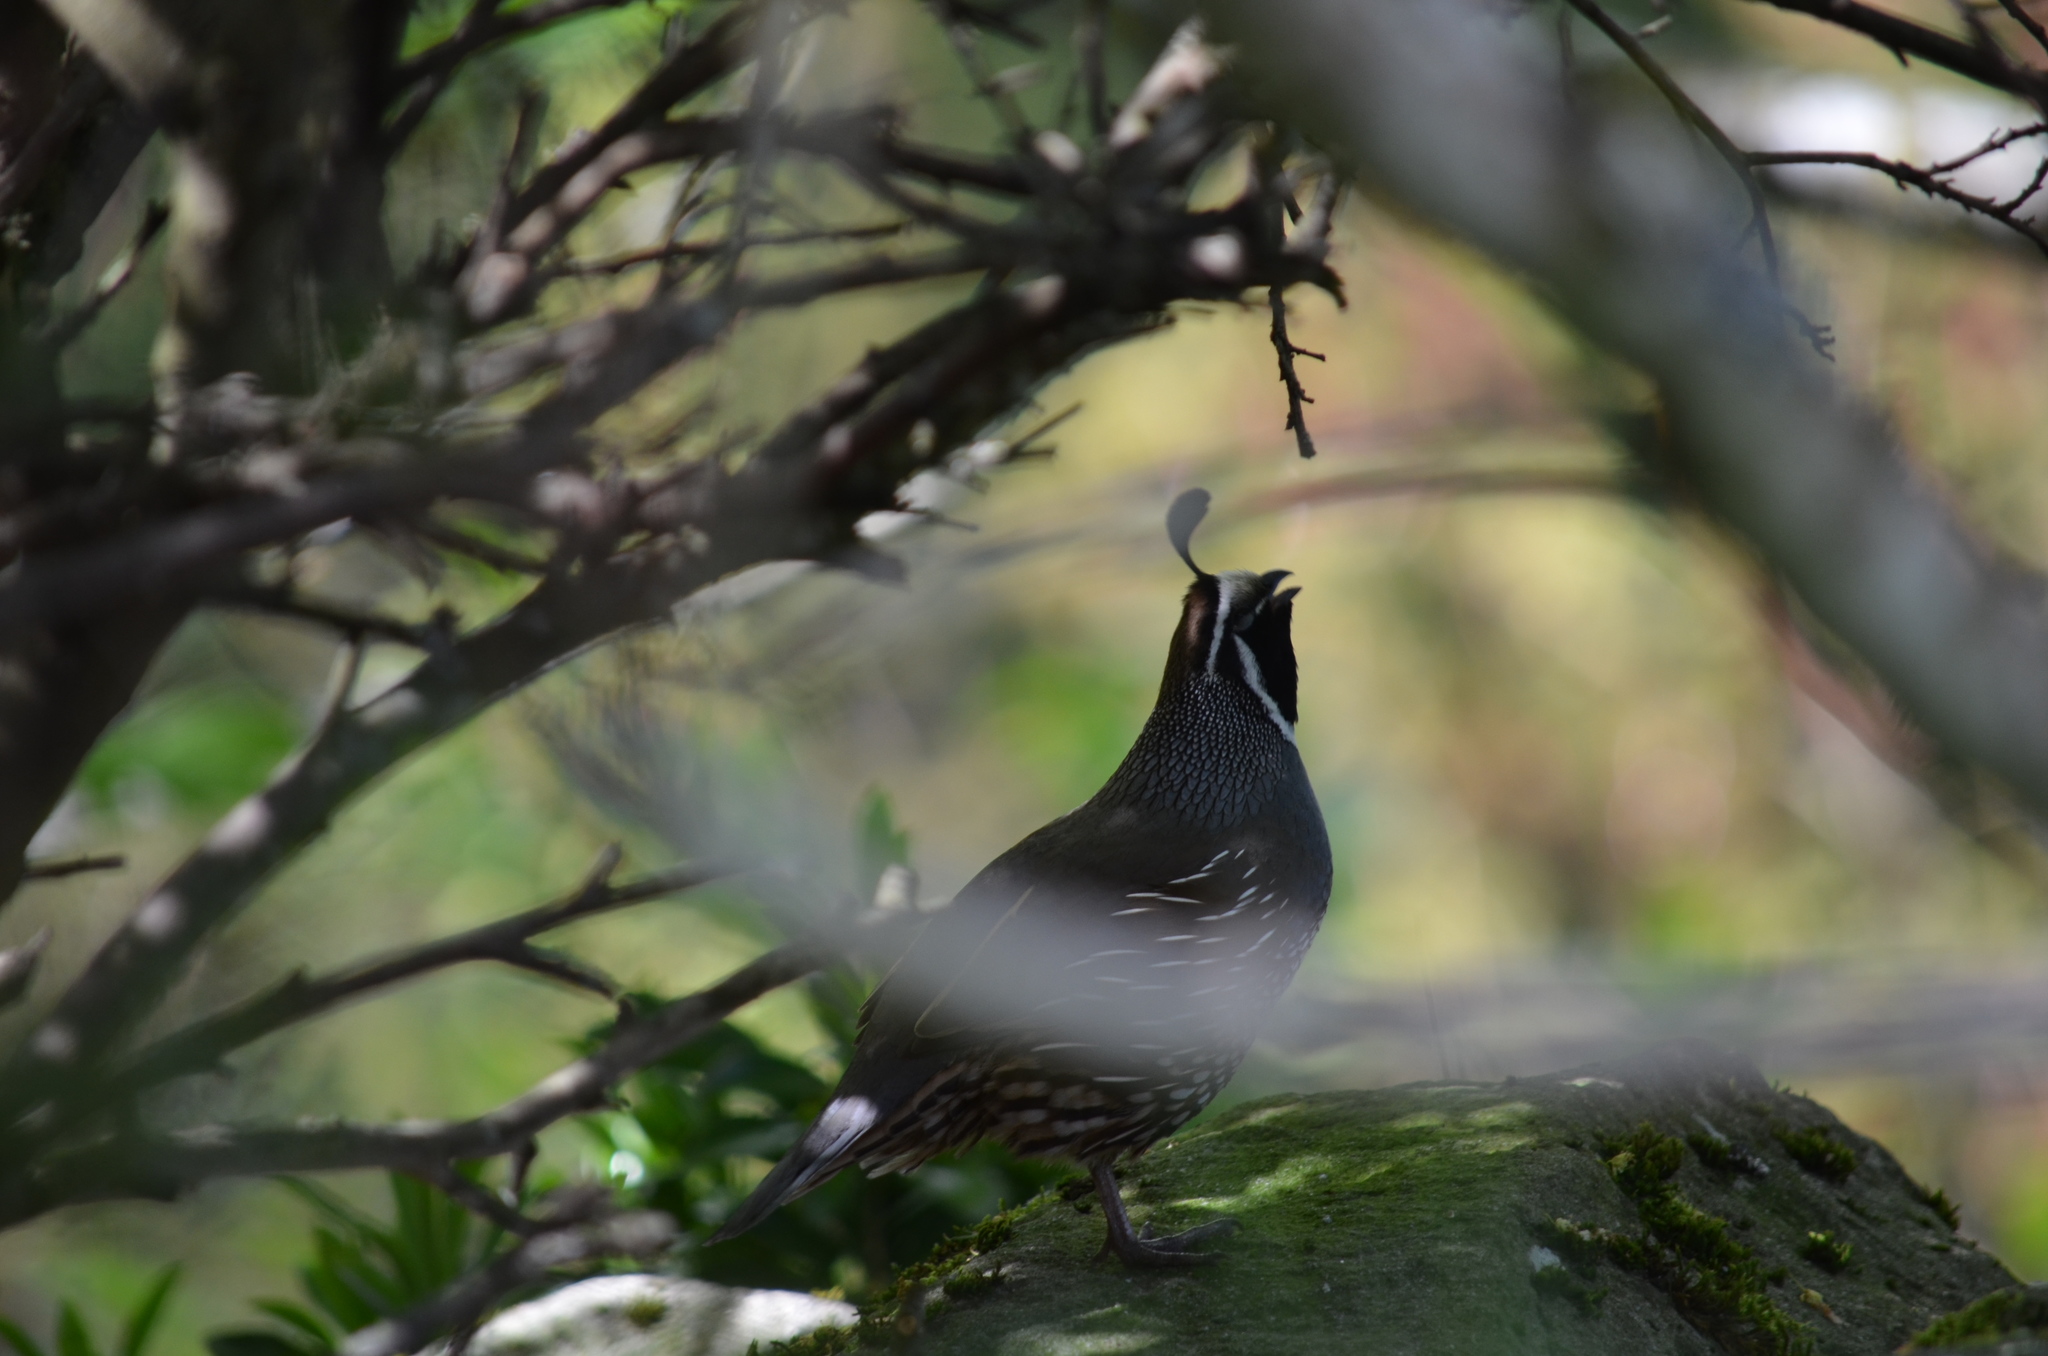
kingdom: Animalia
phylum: Chordata
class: Aves
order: Galliformes
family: Odontophoridae
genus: Callipepla
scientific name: Callipepla californica
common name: California quail
